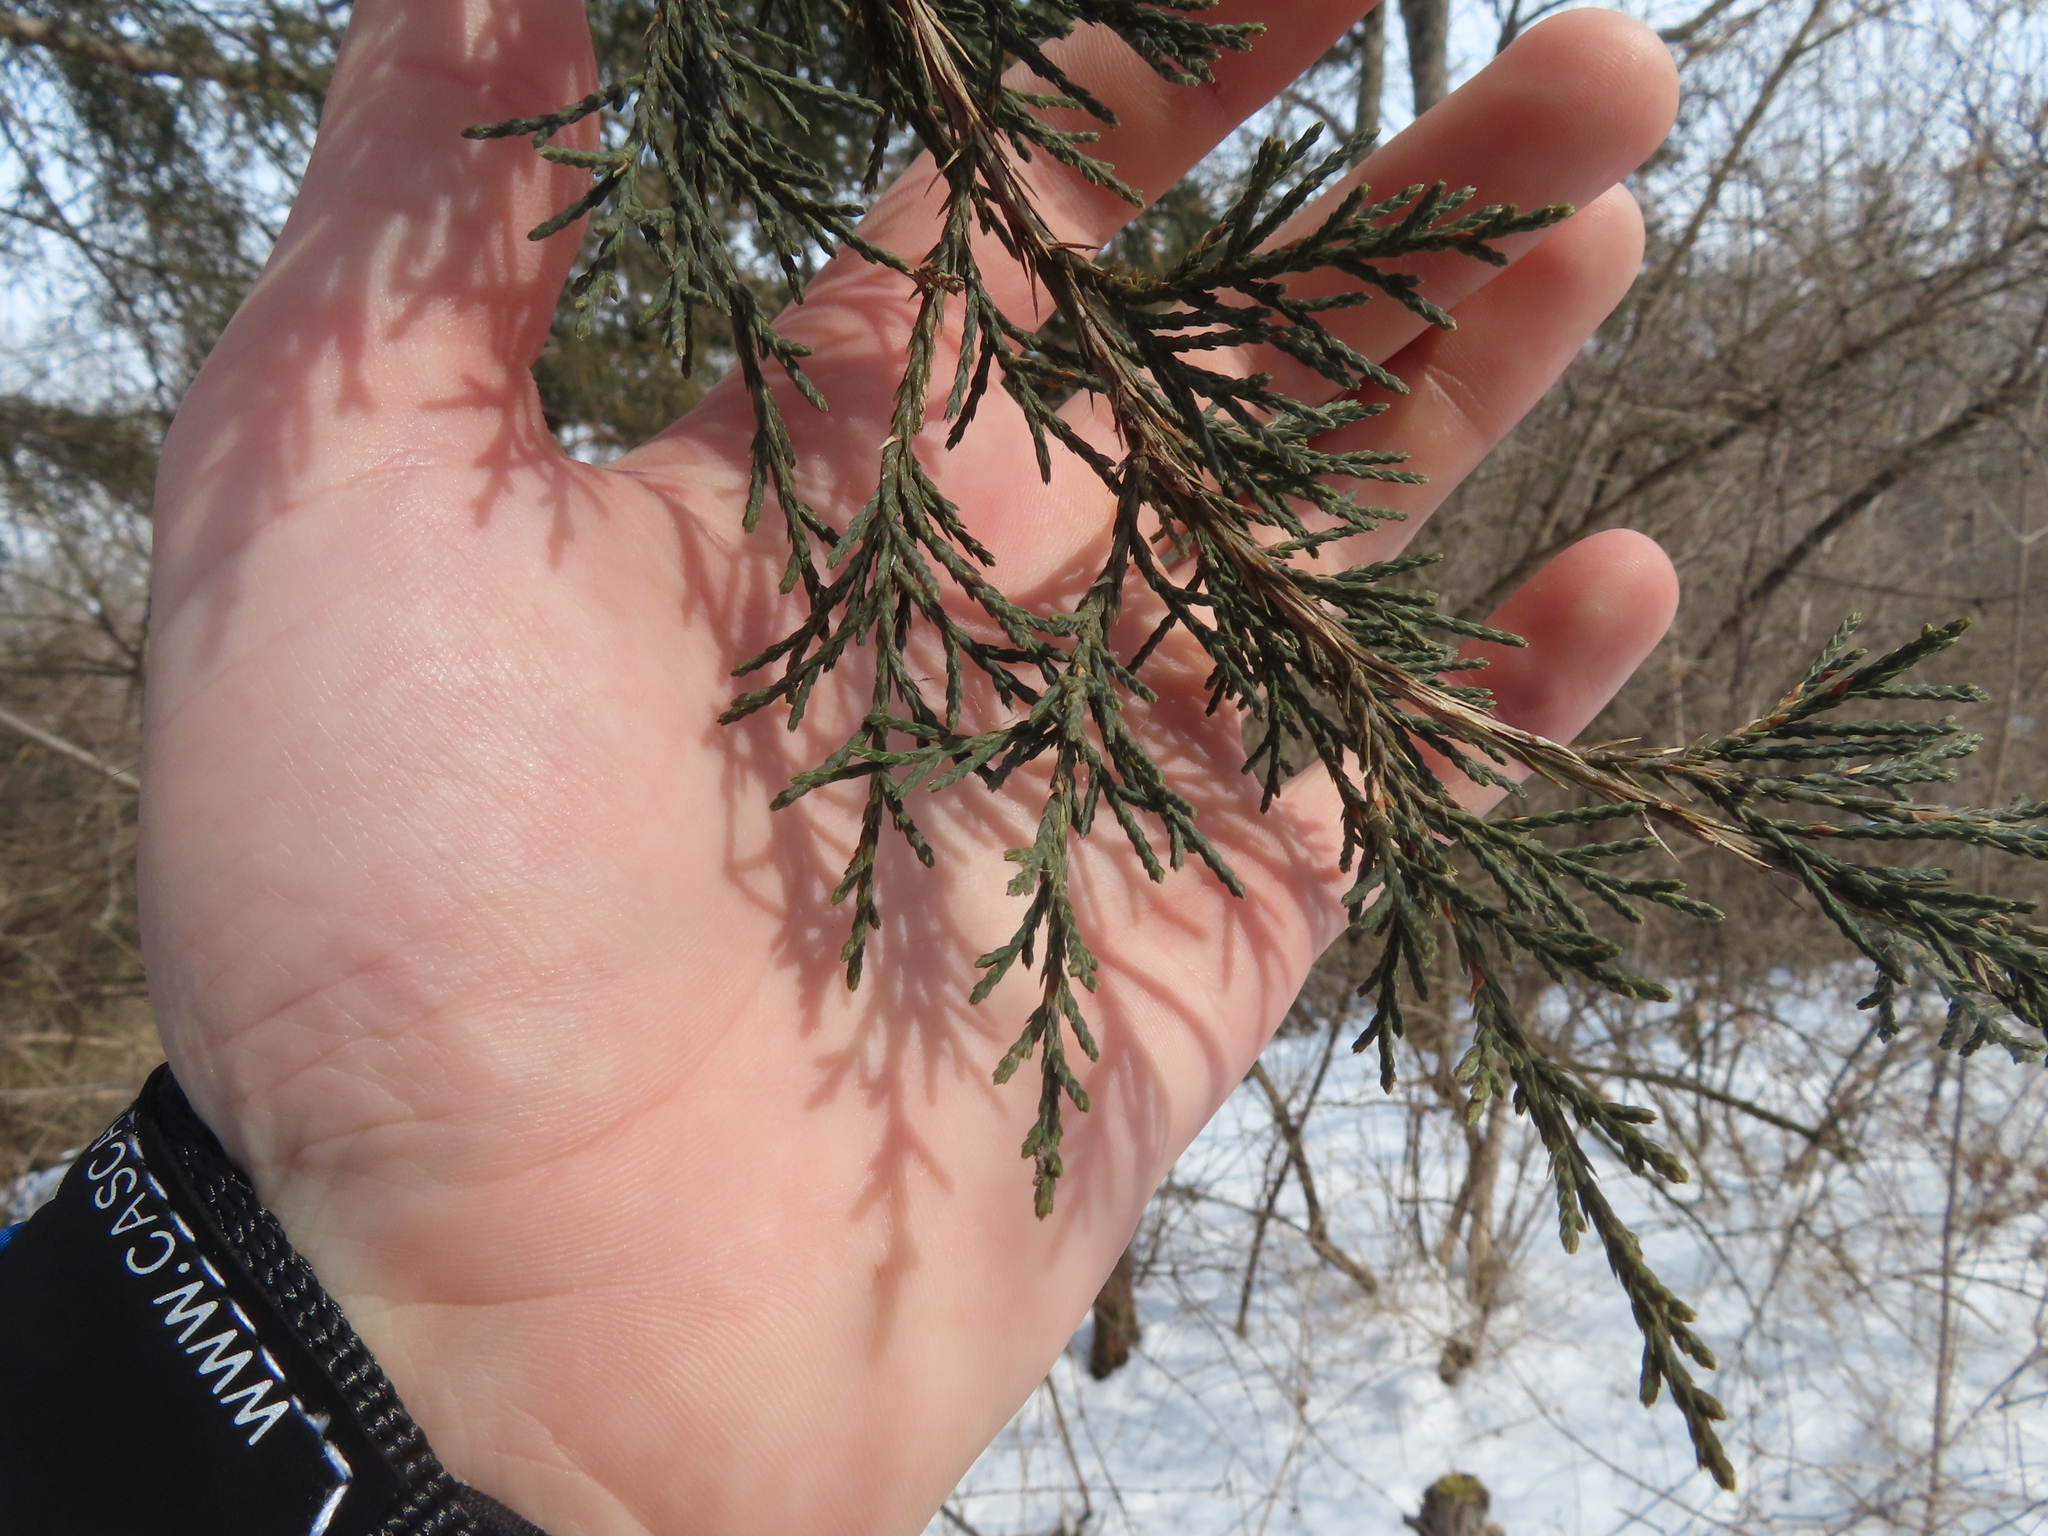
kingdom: Plantae
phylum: Tracheophyta
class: Pinopsida
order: Pinales
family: Cupressaceae
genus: Juniperus
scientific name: Juniperus virginiana
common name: Red juniper
